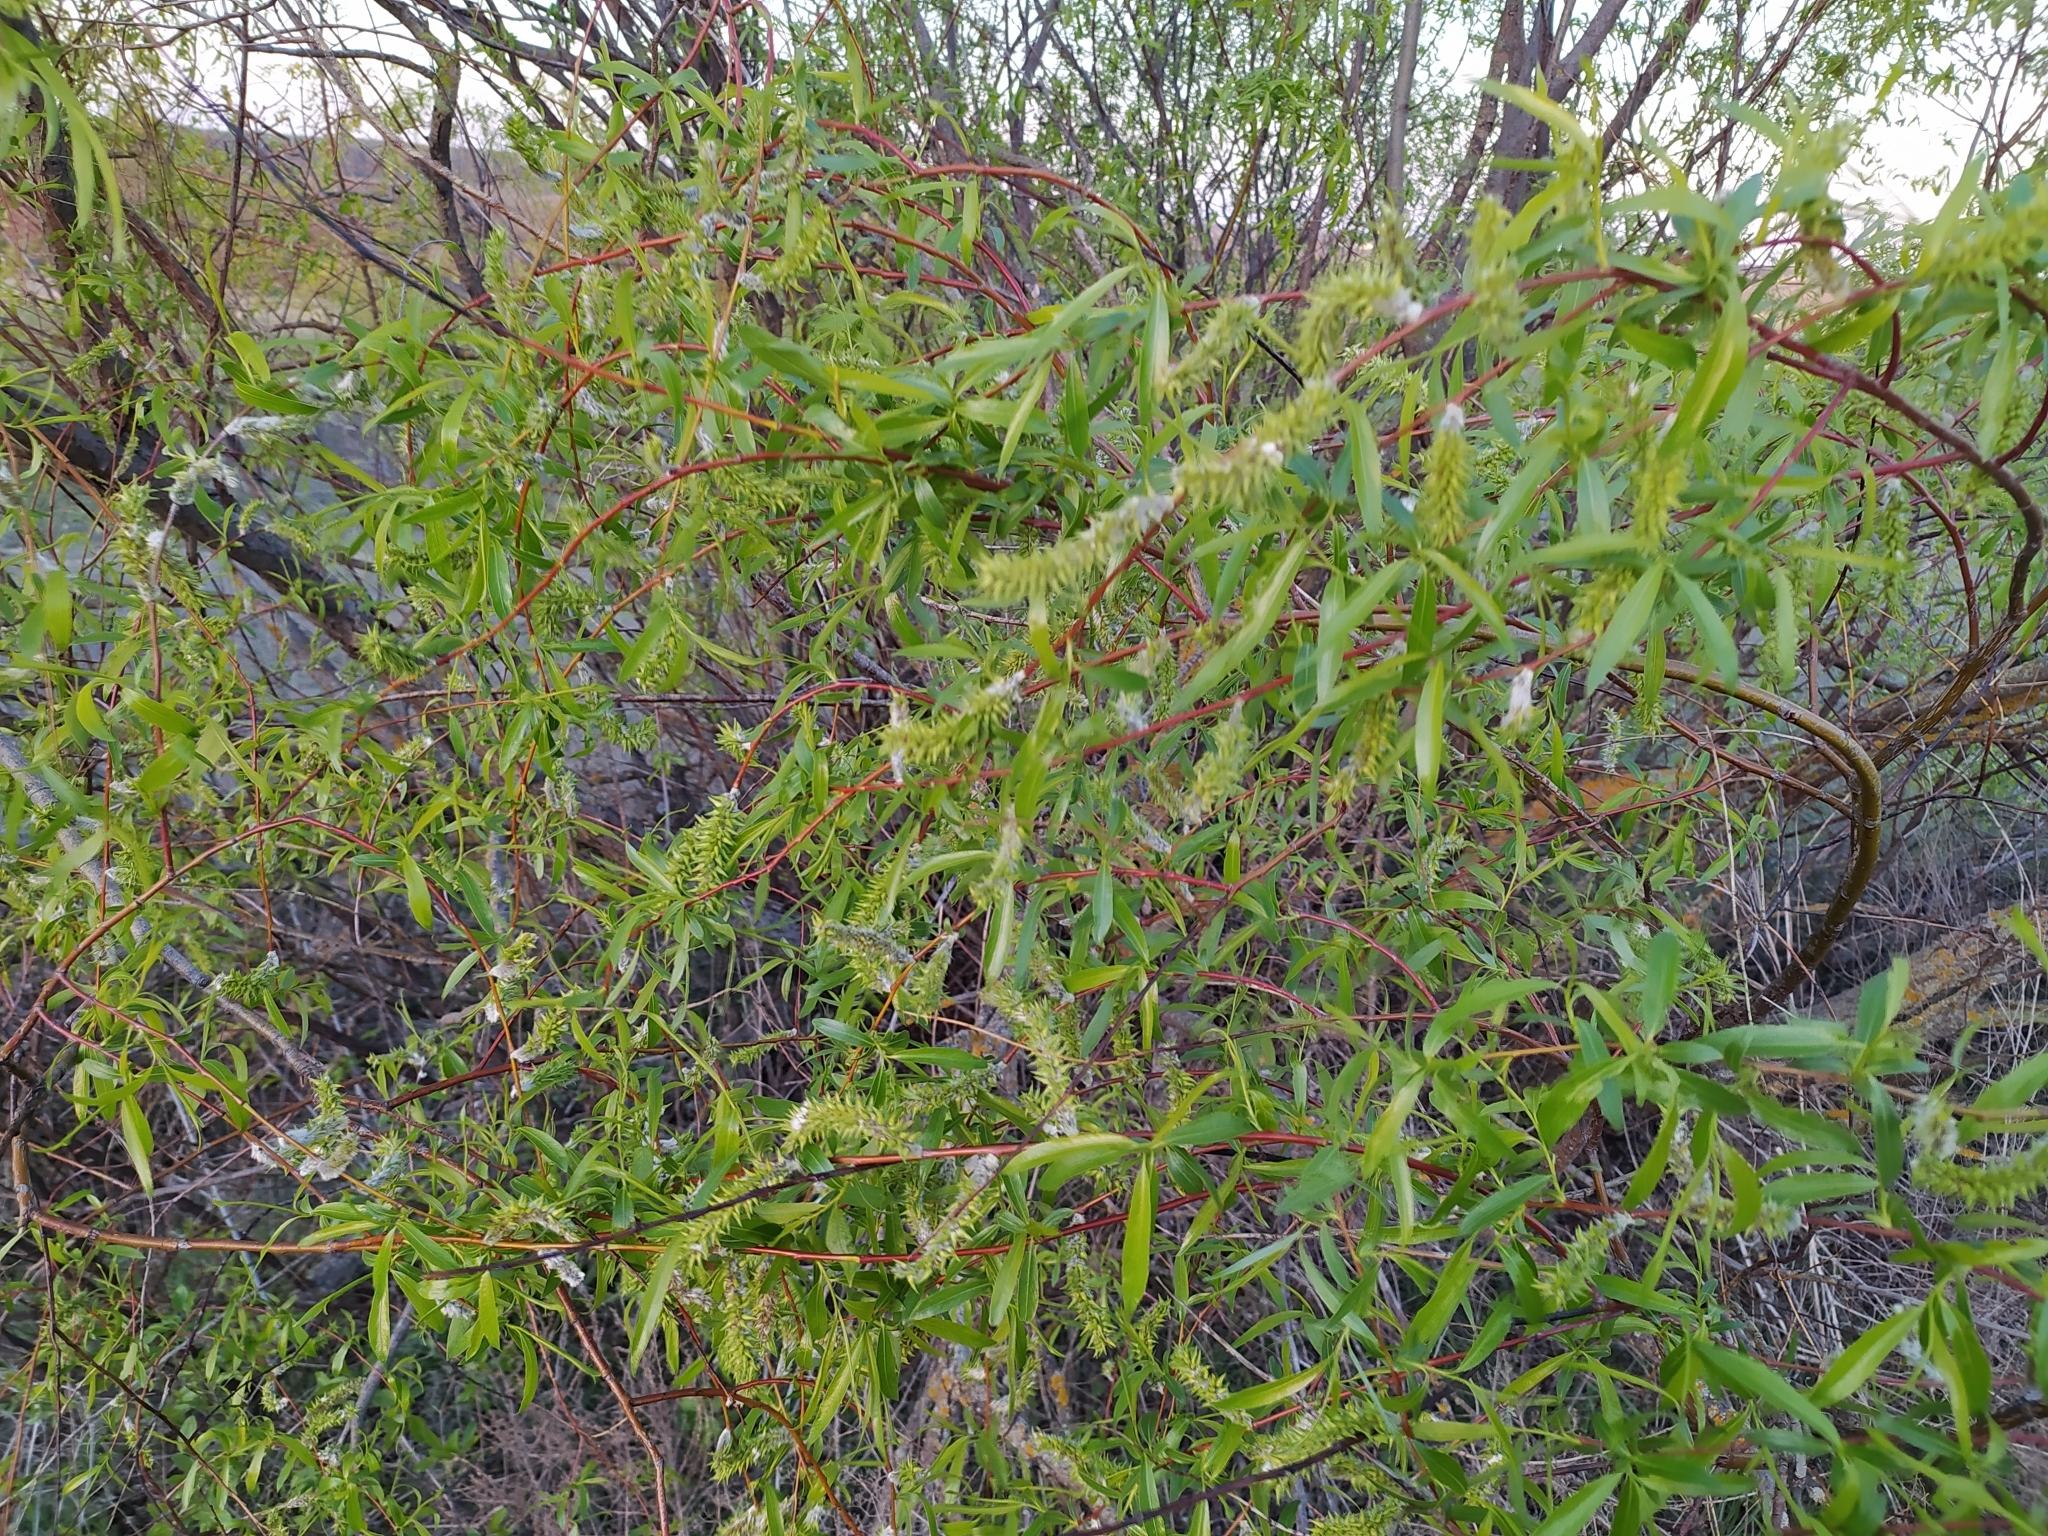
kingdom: Plantae
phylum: Tracheophyta
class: Magnoliopsida
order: Malpighiales
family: Salicaceae
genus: Salix
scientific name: Salix acutifolia
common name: Siberian violet-willow
